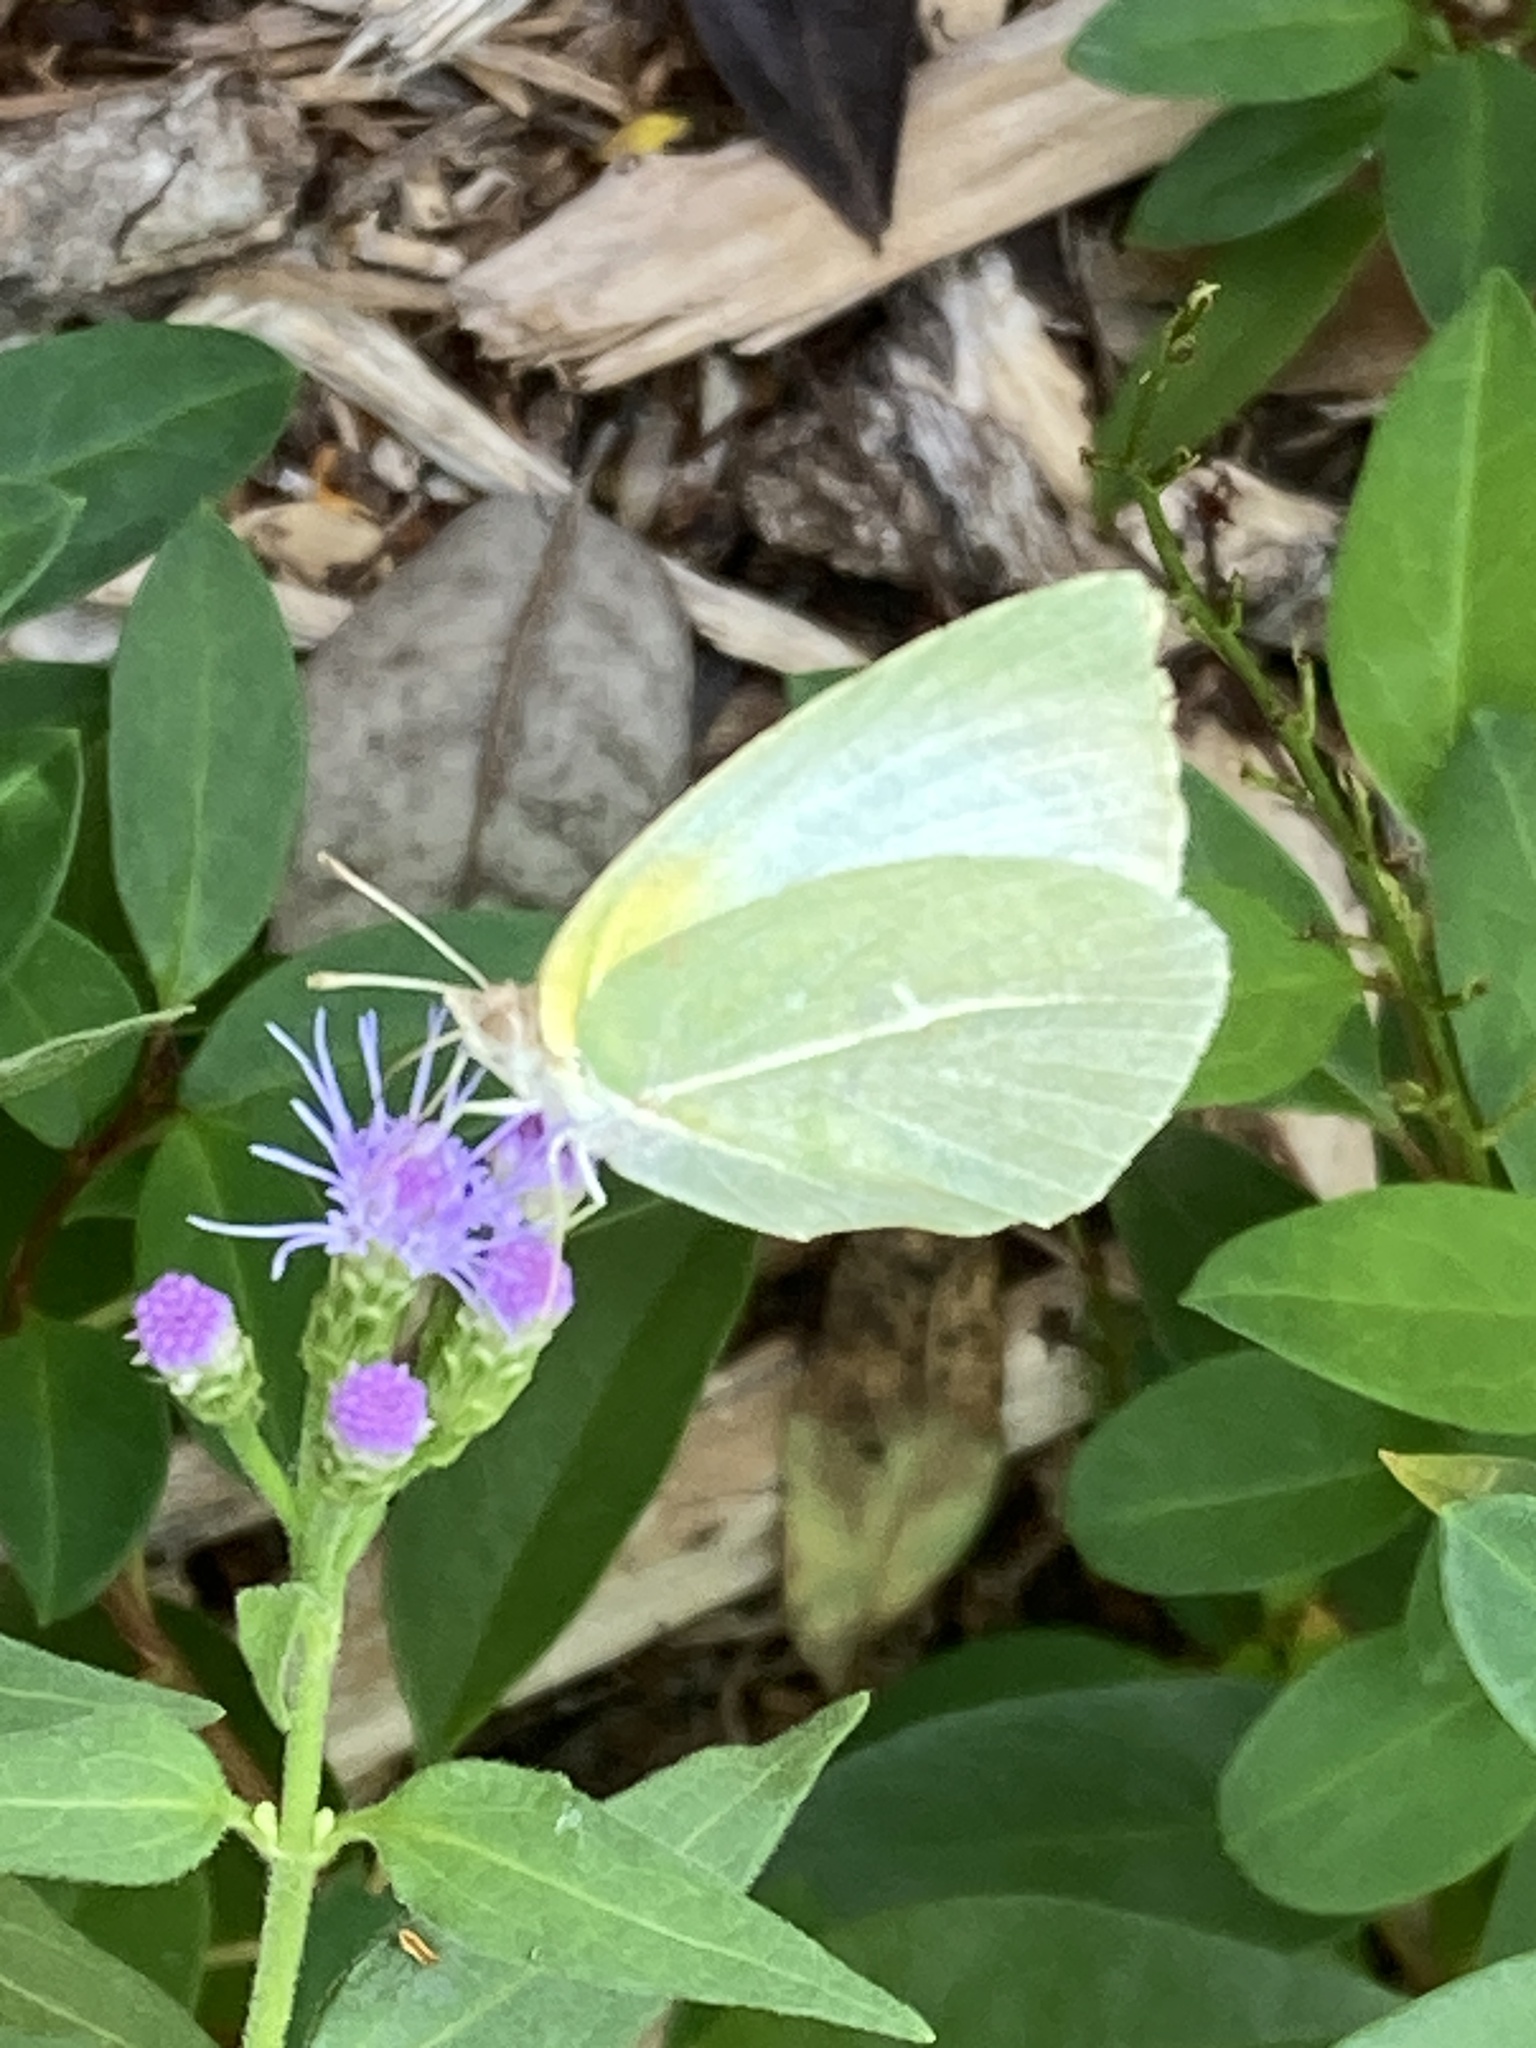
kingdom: Animalia
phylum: Arthropoda
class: Insecta
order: Lepidoptera
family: Pieridae
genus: Kricogonia
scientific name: Kricogonia lyside
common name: Guayacan sulphur,
